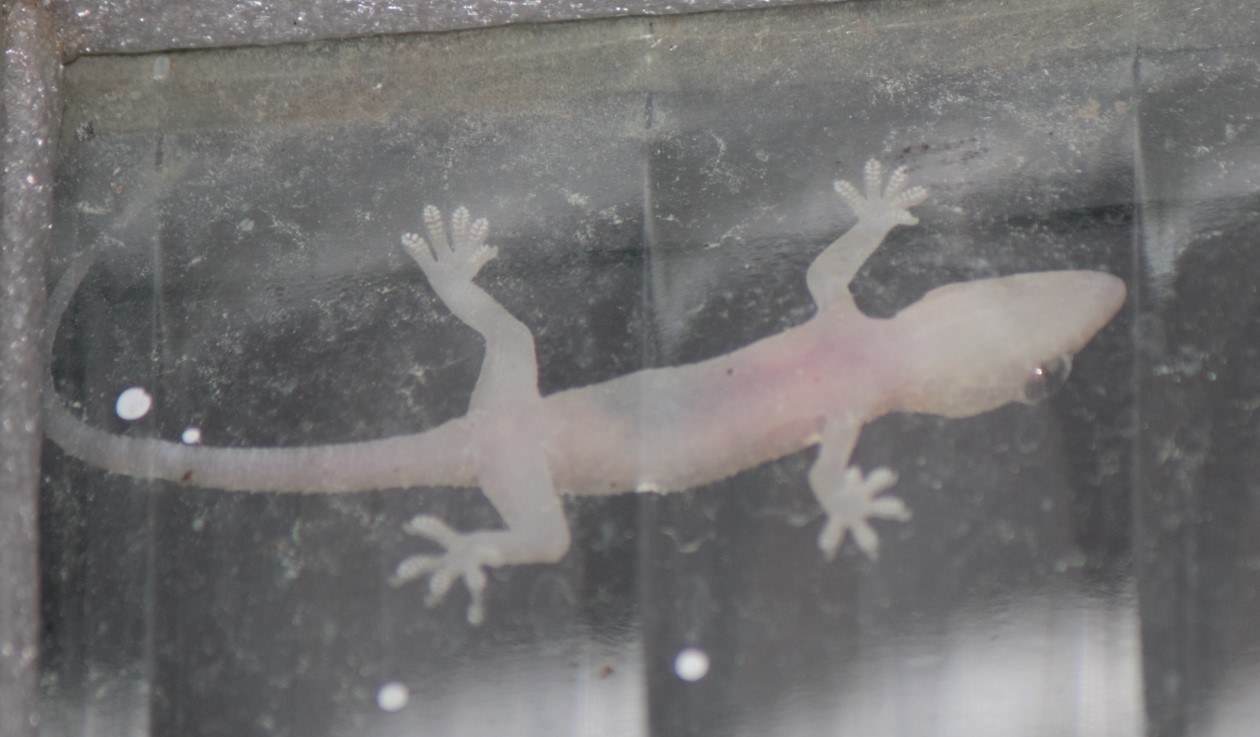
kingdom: Animalia
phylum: Chordata
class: Squamata
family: Gekkonidae
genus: Hemidactylus
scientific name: Hemidactylus mabouia
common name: House gecko
